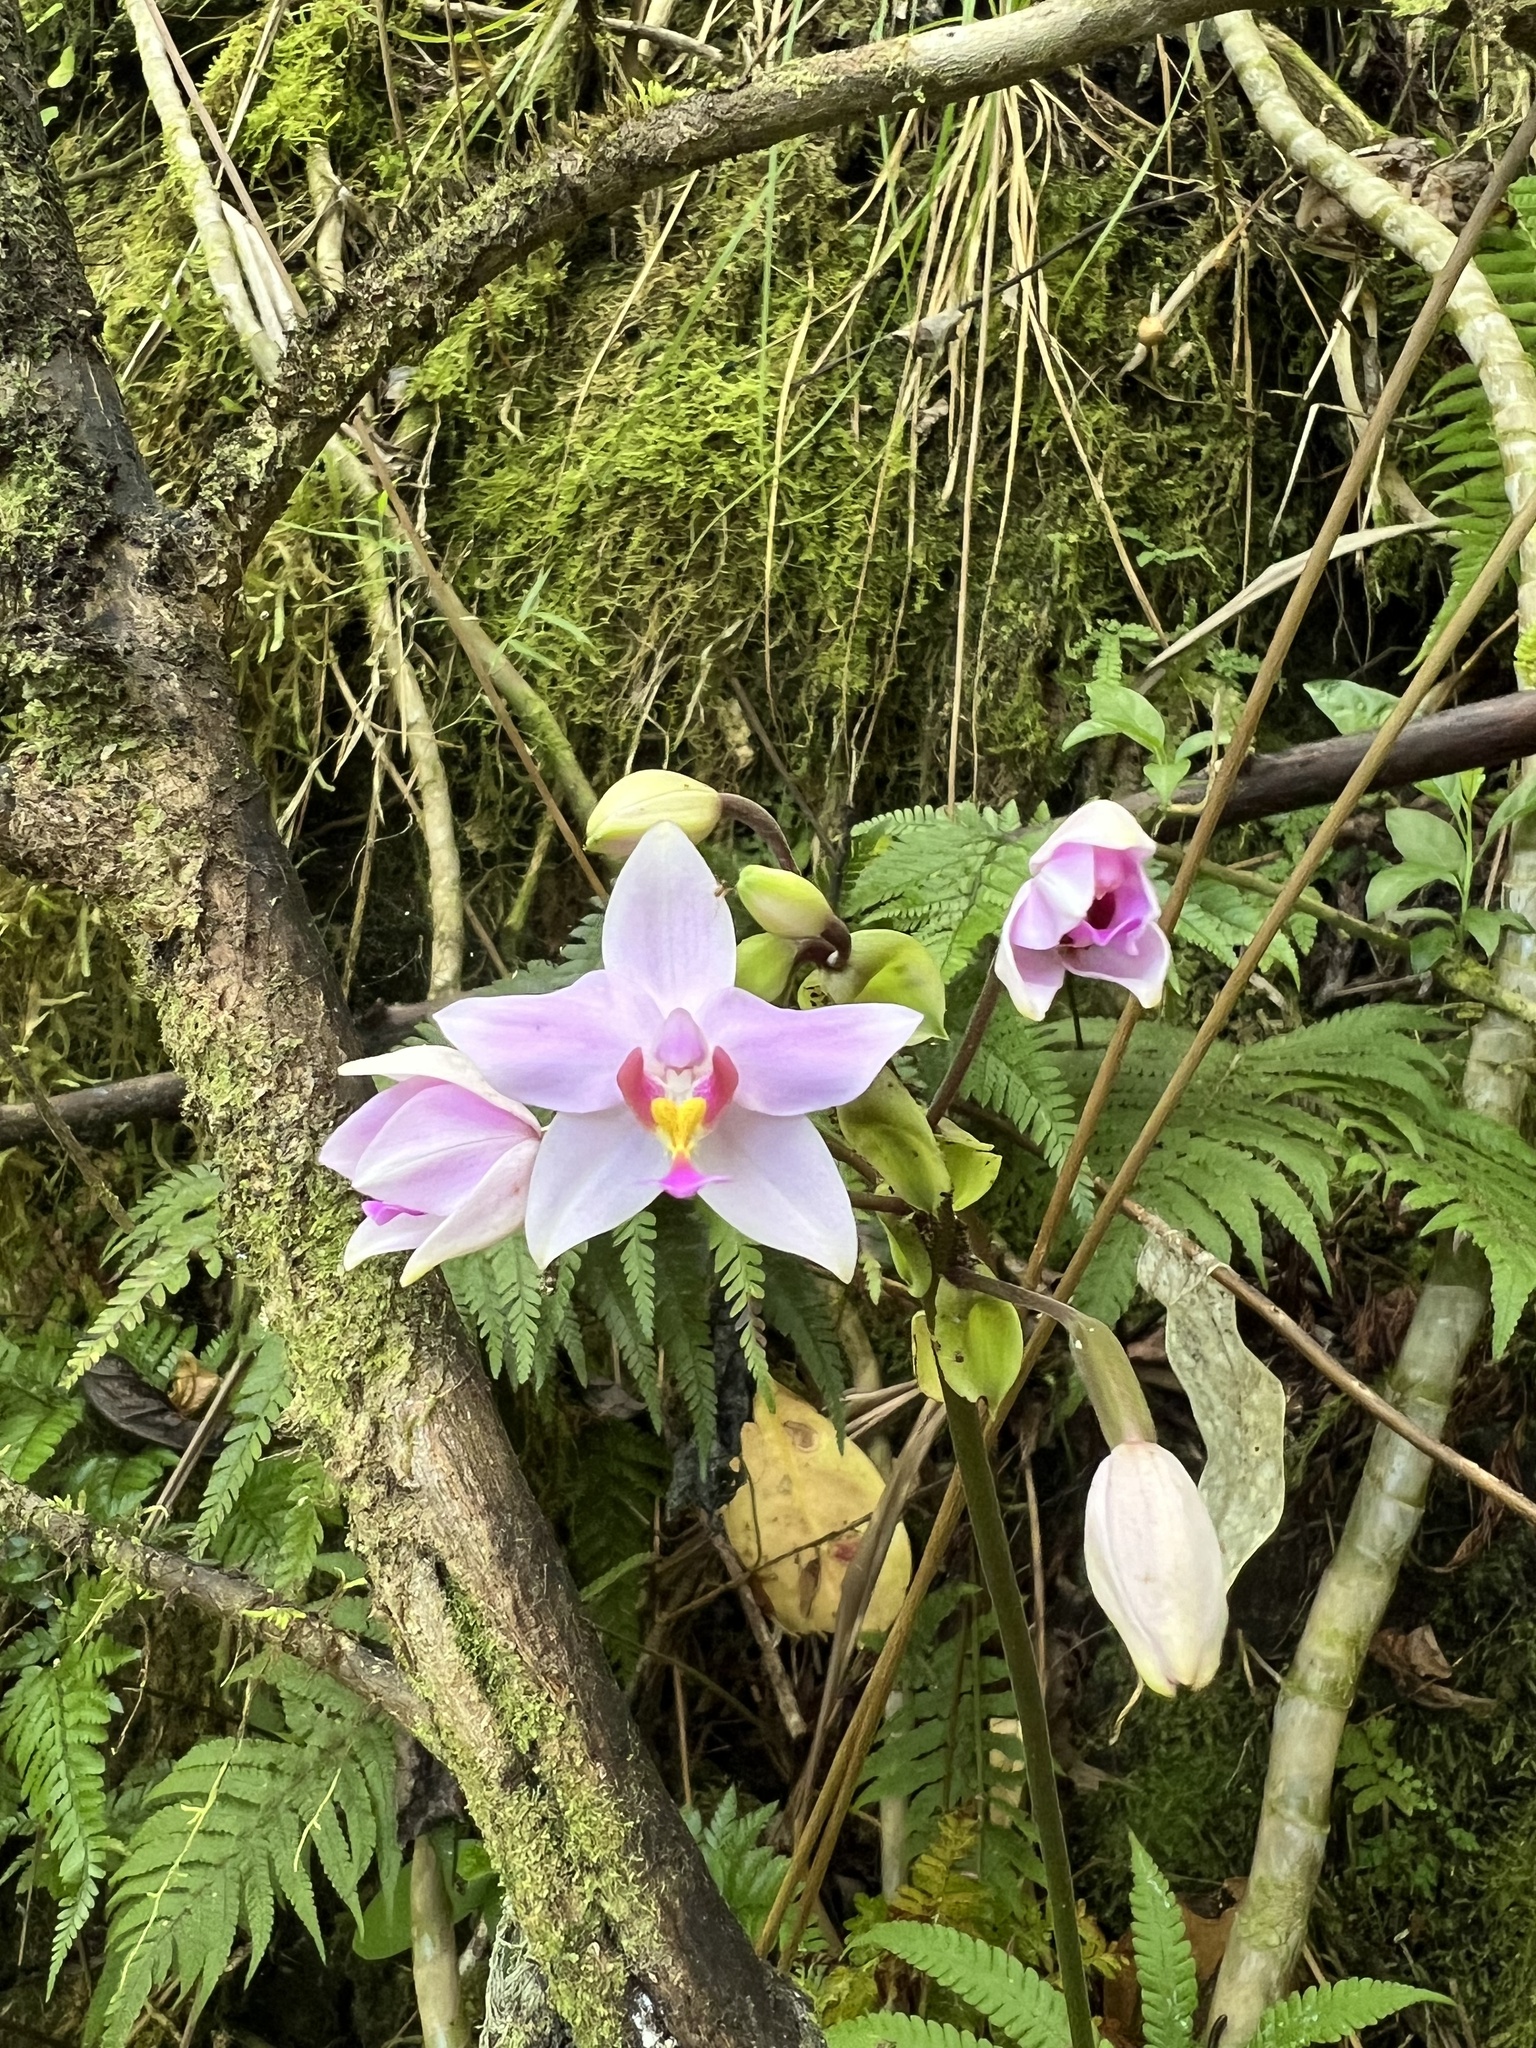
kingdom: Plantae
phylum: Tracheophyta
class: Liliopsida
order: Asparagales
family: Orchidaceae
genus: Spathoglottis
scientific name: Spathoglottis plicata
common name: Philippine ground orchid
